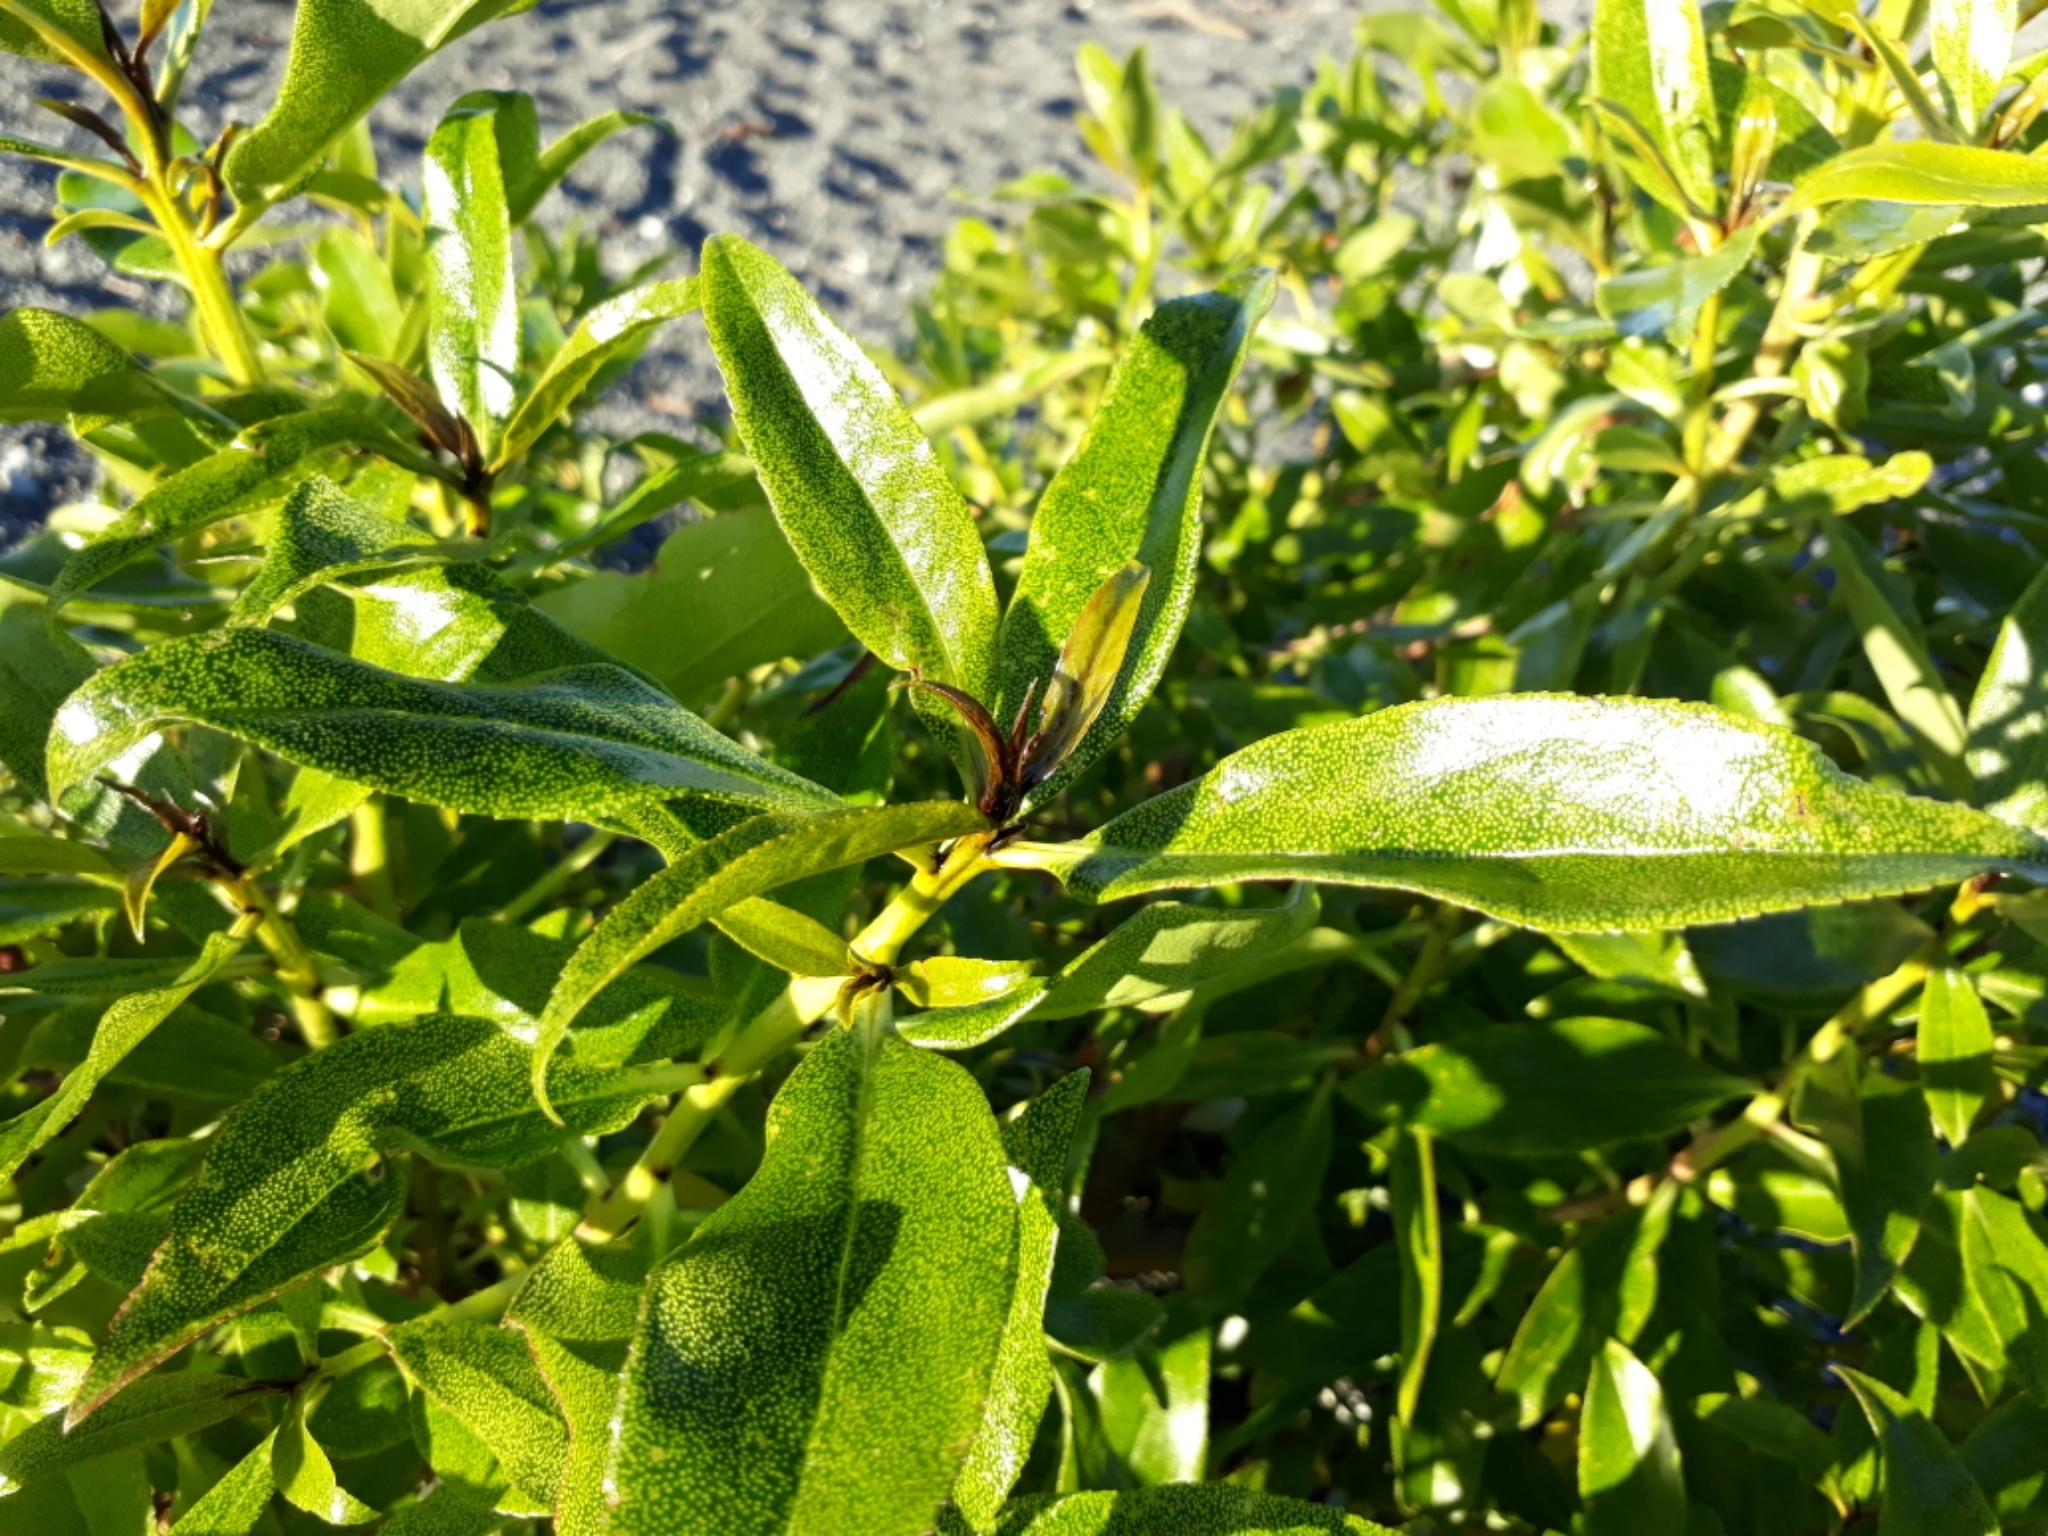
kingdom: Plantae
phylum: Tracheophyta
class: Magnoliopsida
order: Lamiales
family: Scrophulariaceae
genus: Myoporum
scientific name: Myoporum laetum
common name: Ngaio tree
